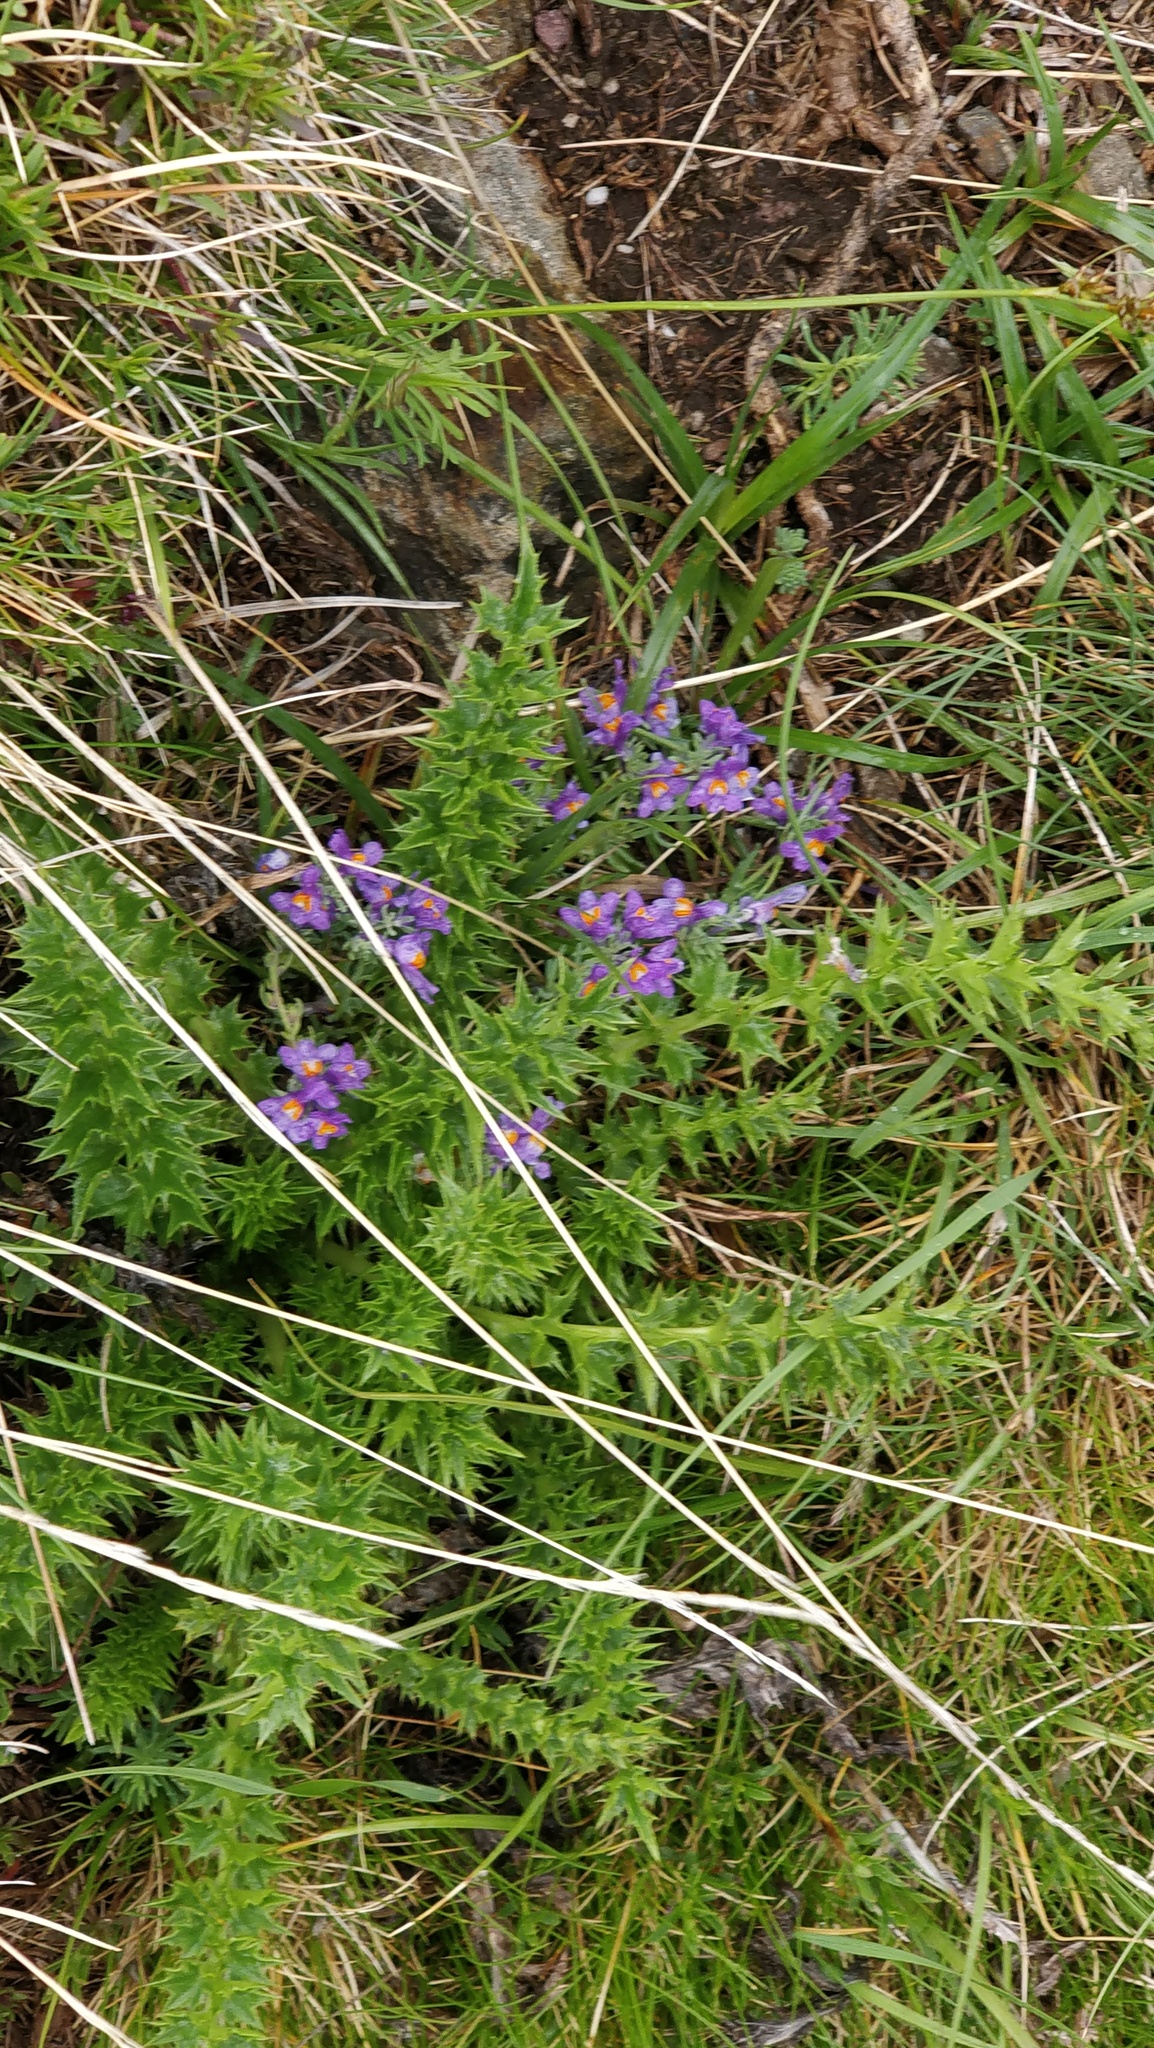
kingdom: Plantae
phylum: Tracheophyta
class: Magnoliopsida
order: Lamiales
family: Plantaginaceae
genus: Linaria
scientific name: Linaria alpina
